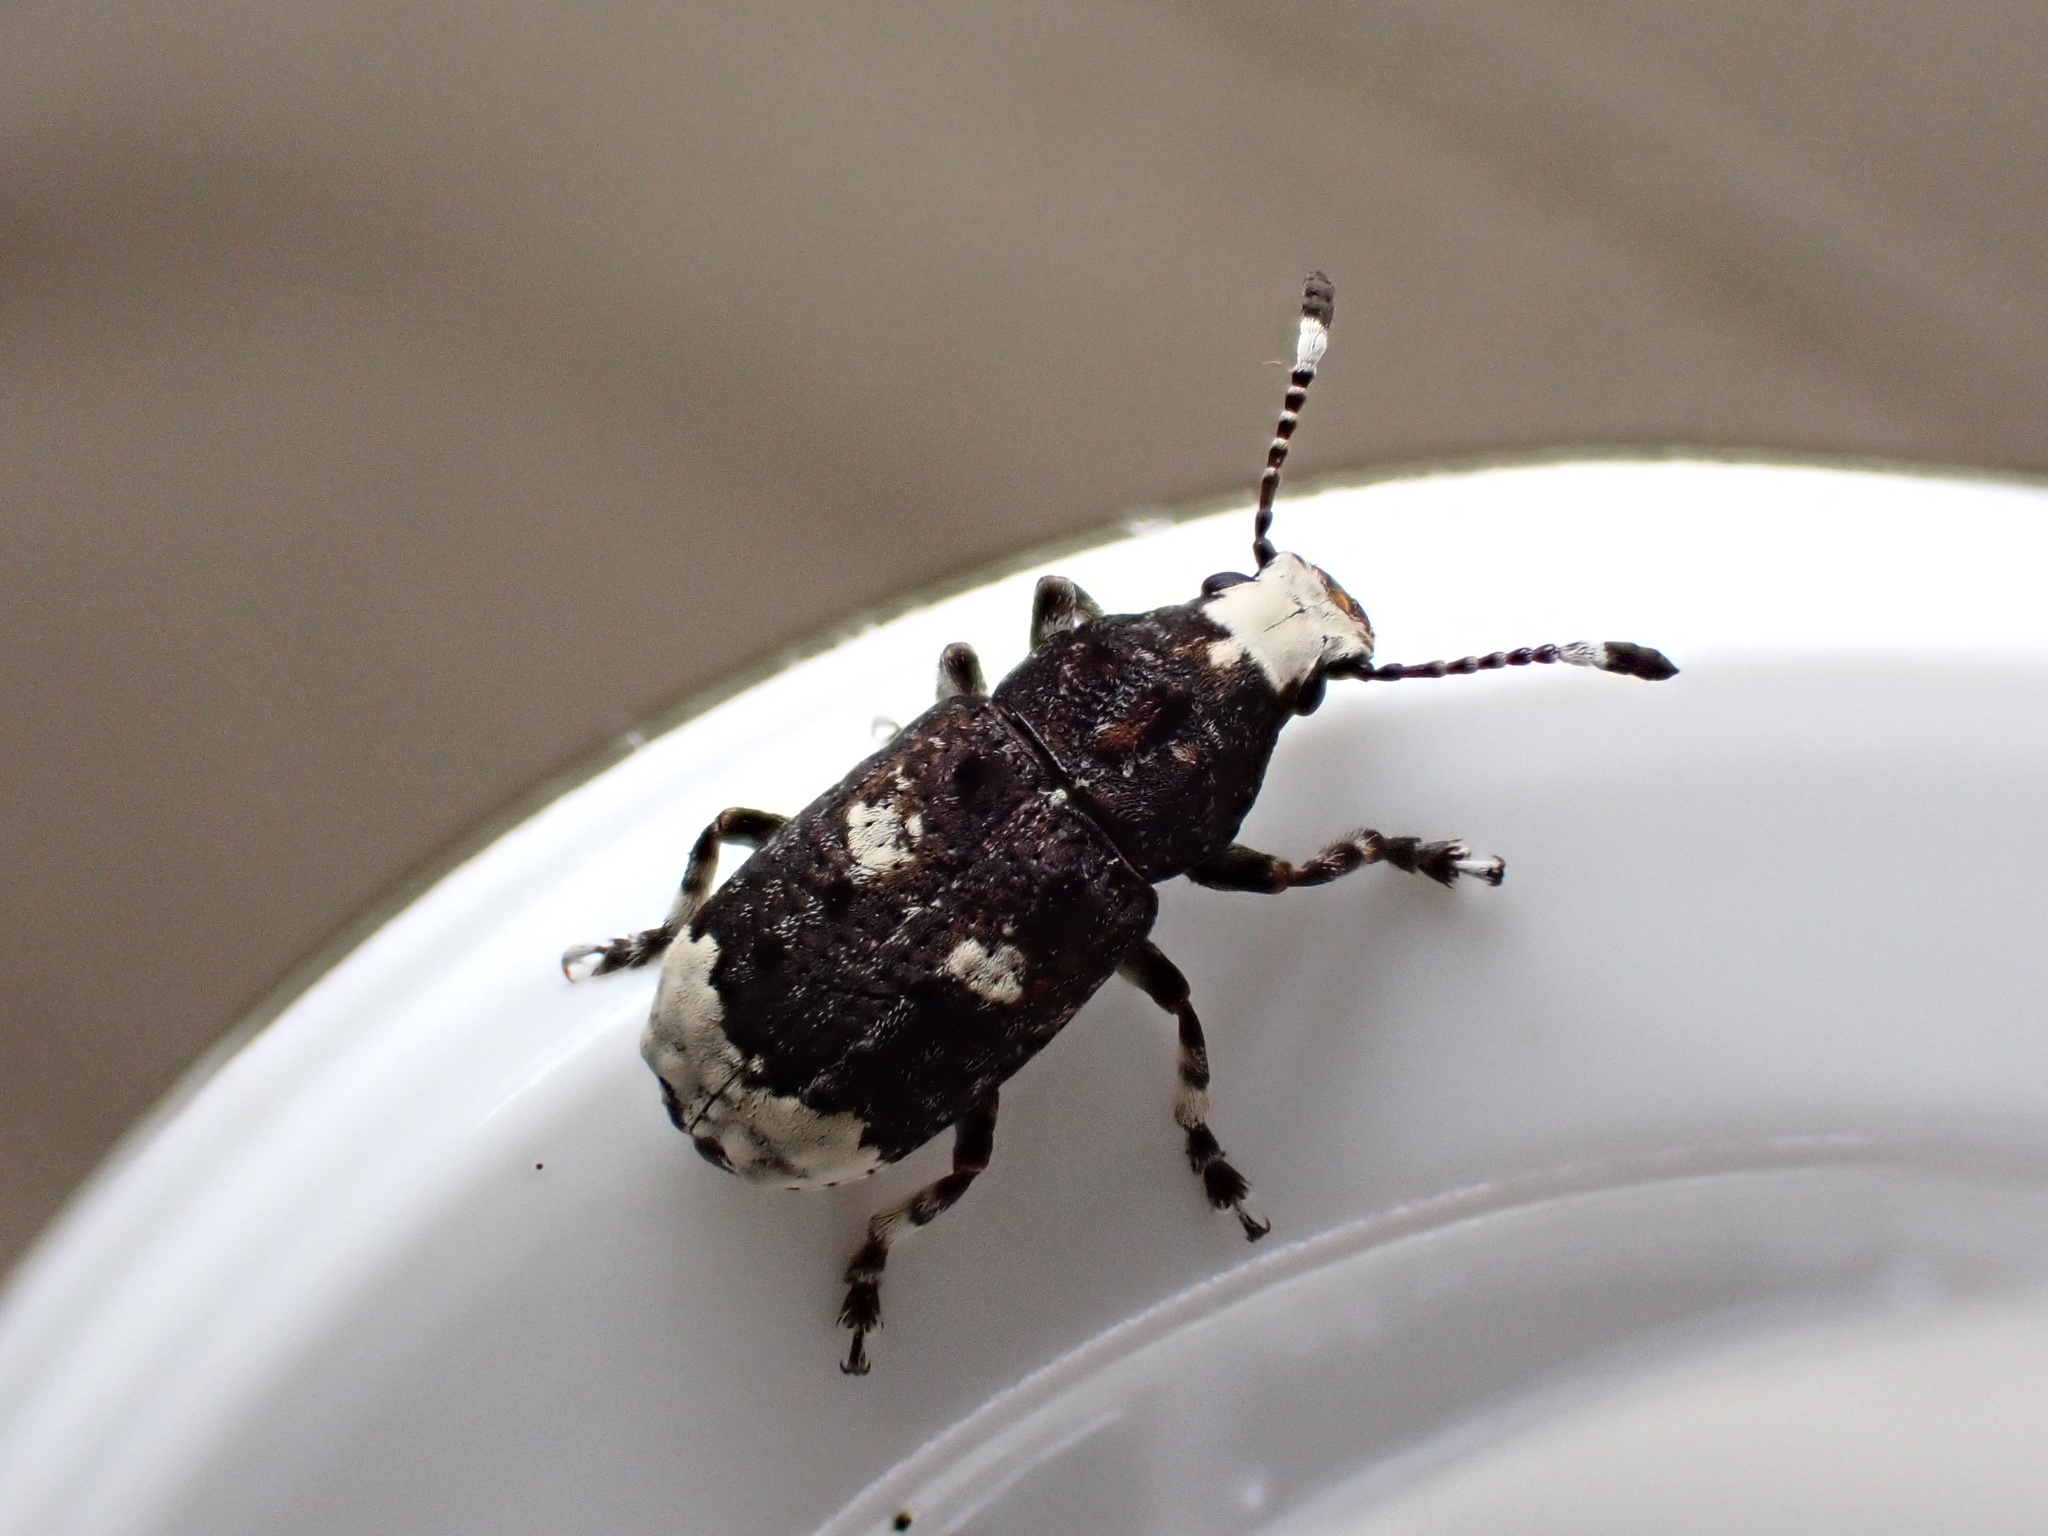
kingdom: Animalia
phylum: Arthropoda
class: Insecta
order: Coleoptera
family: Anthribidae
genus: Platystomos
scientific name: Platystomos albinus
